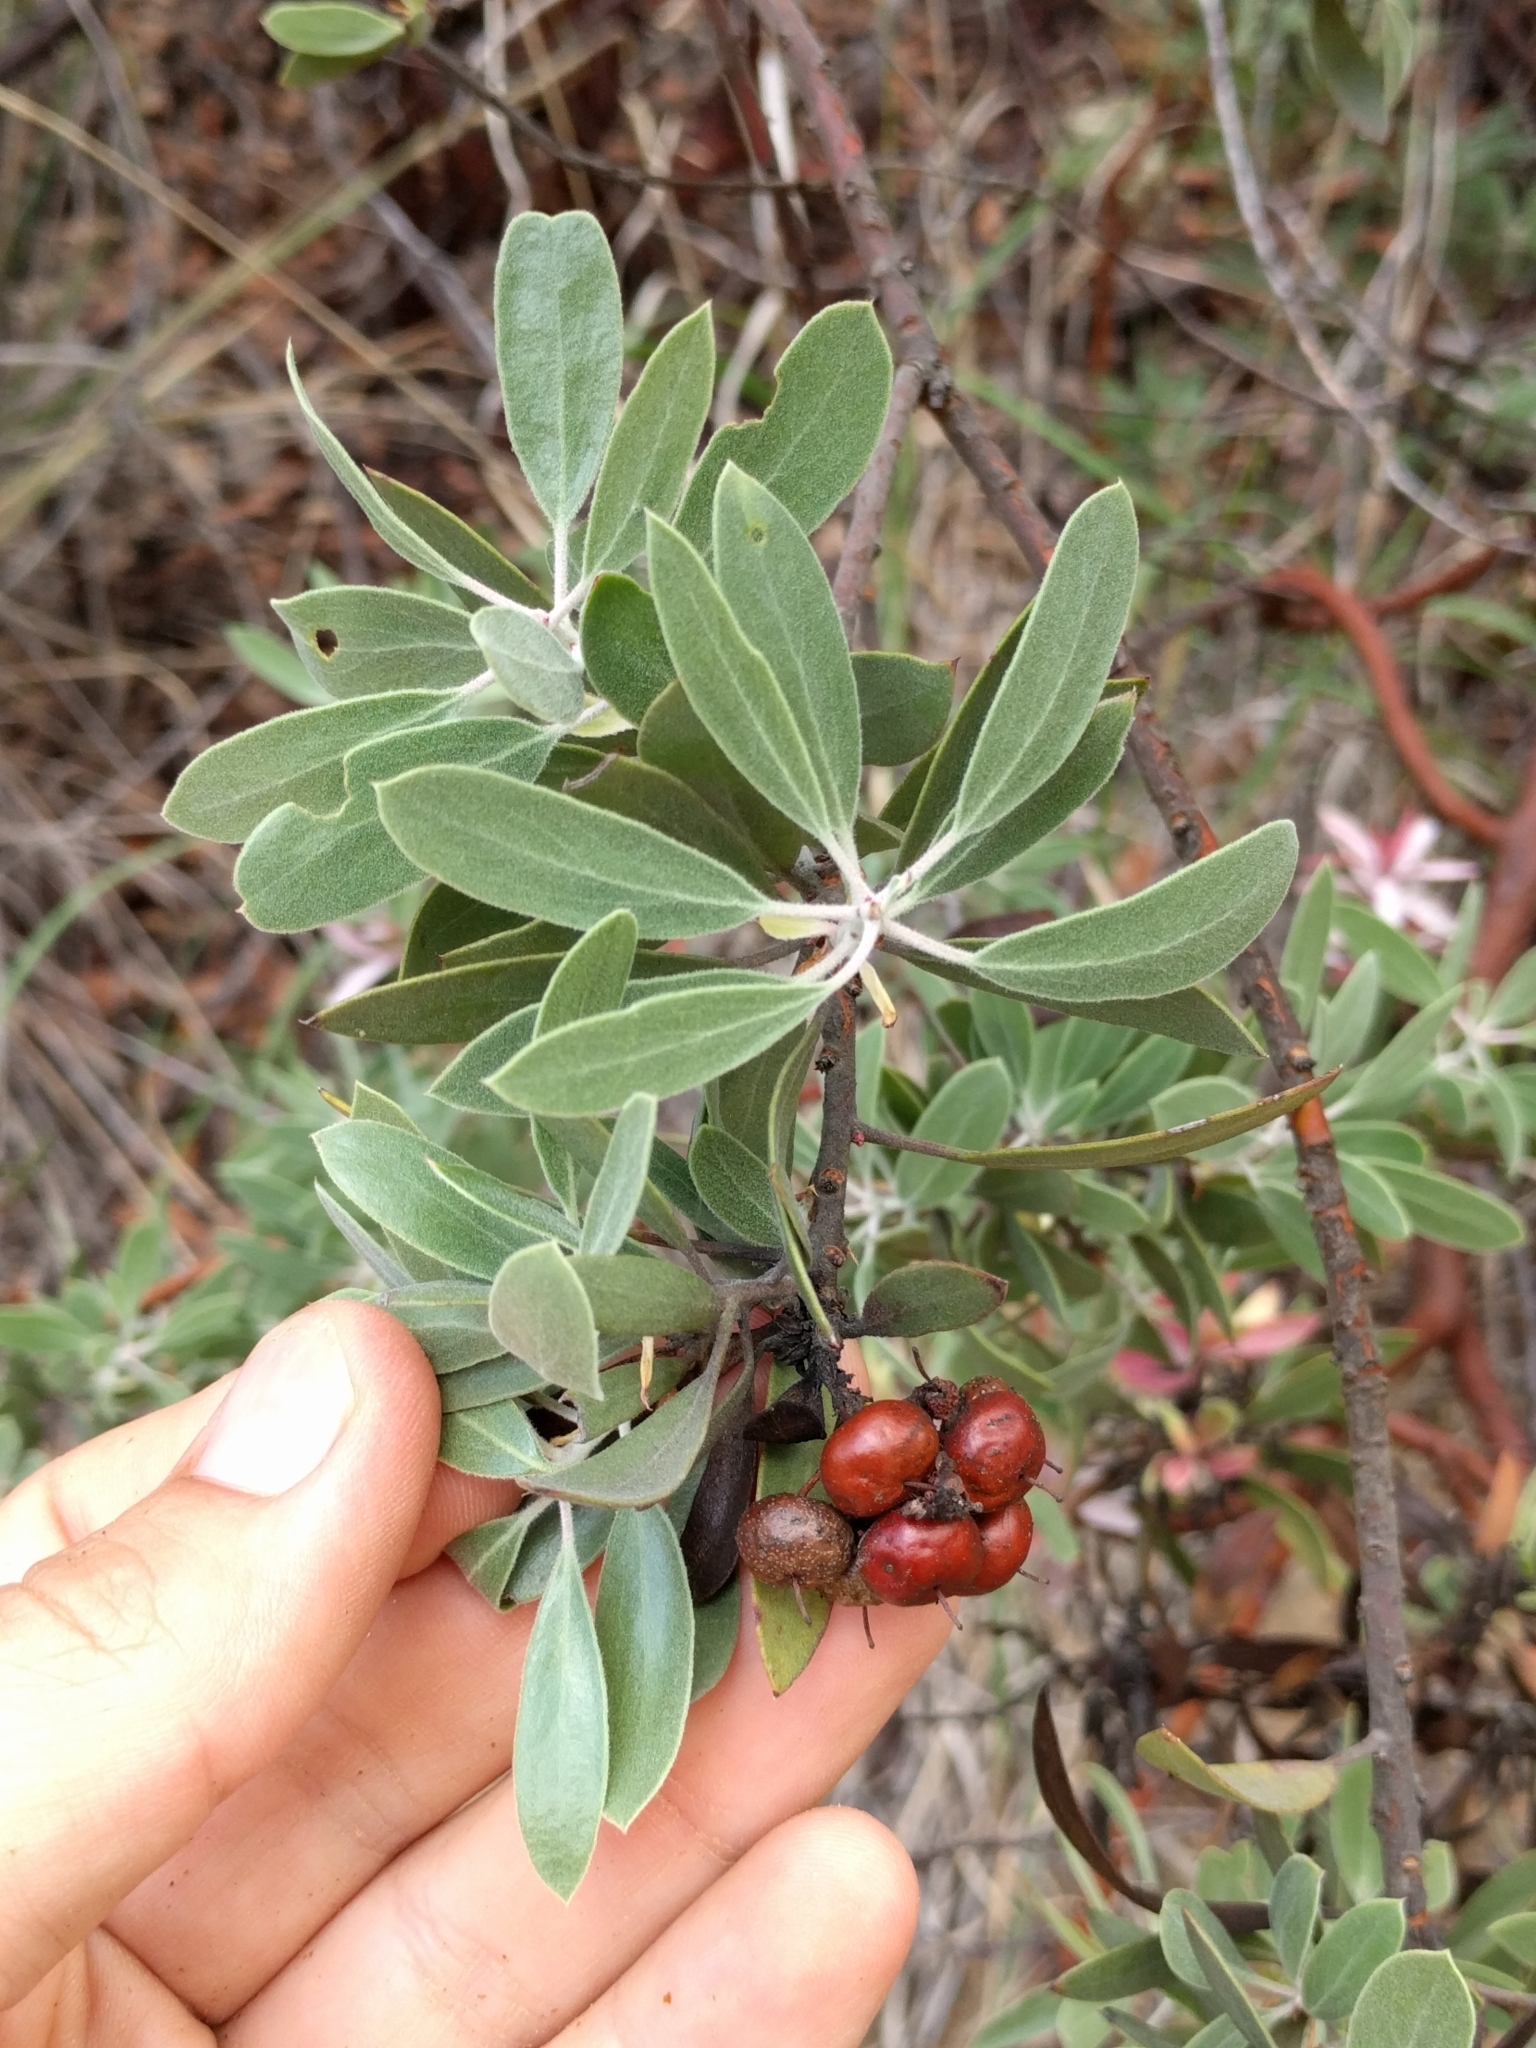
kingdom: Plantae
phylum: Tracheophyta
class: Magnoliopsida
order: Ericales
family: Ericaceae
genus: Arctostaphylos
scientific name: Arctostaphylos pungens
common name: Mexican manzanita
